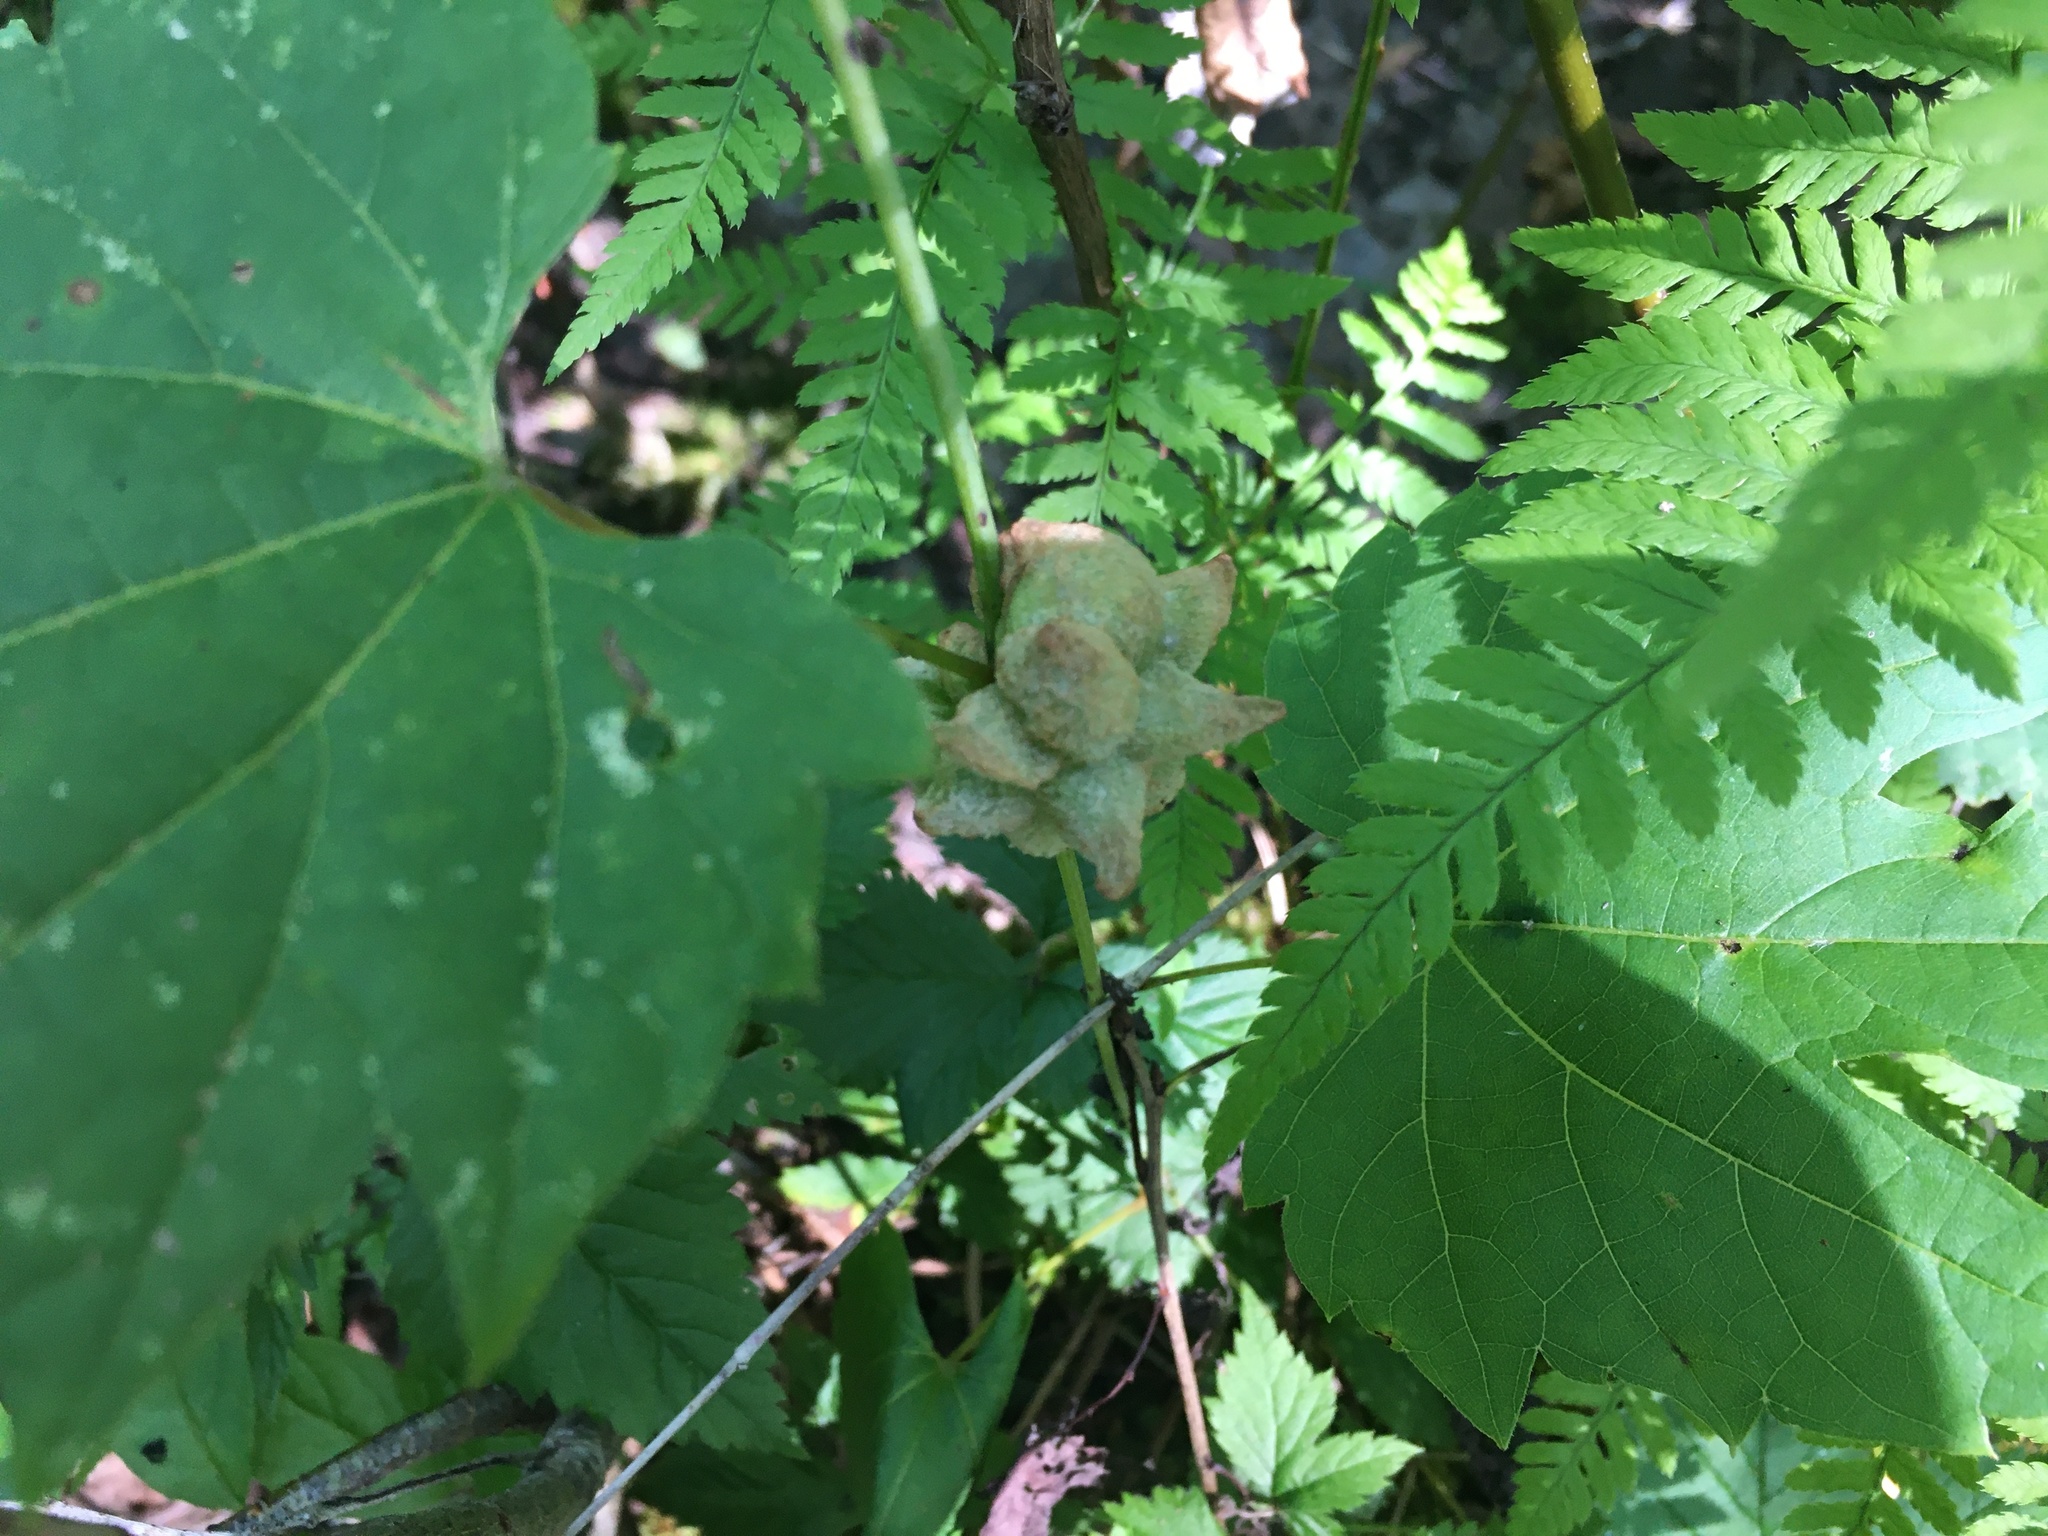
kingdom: Animalia
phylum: Arthropoda
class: Insecta
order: Diptera
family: Cecidomyiidae
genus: Ampelomyia
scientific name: Ampelomyia vitiscoryloides
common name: Grape filbert gall
